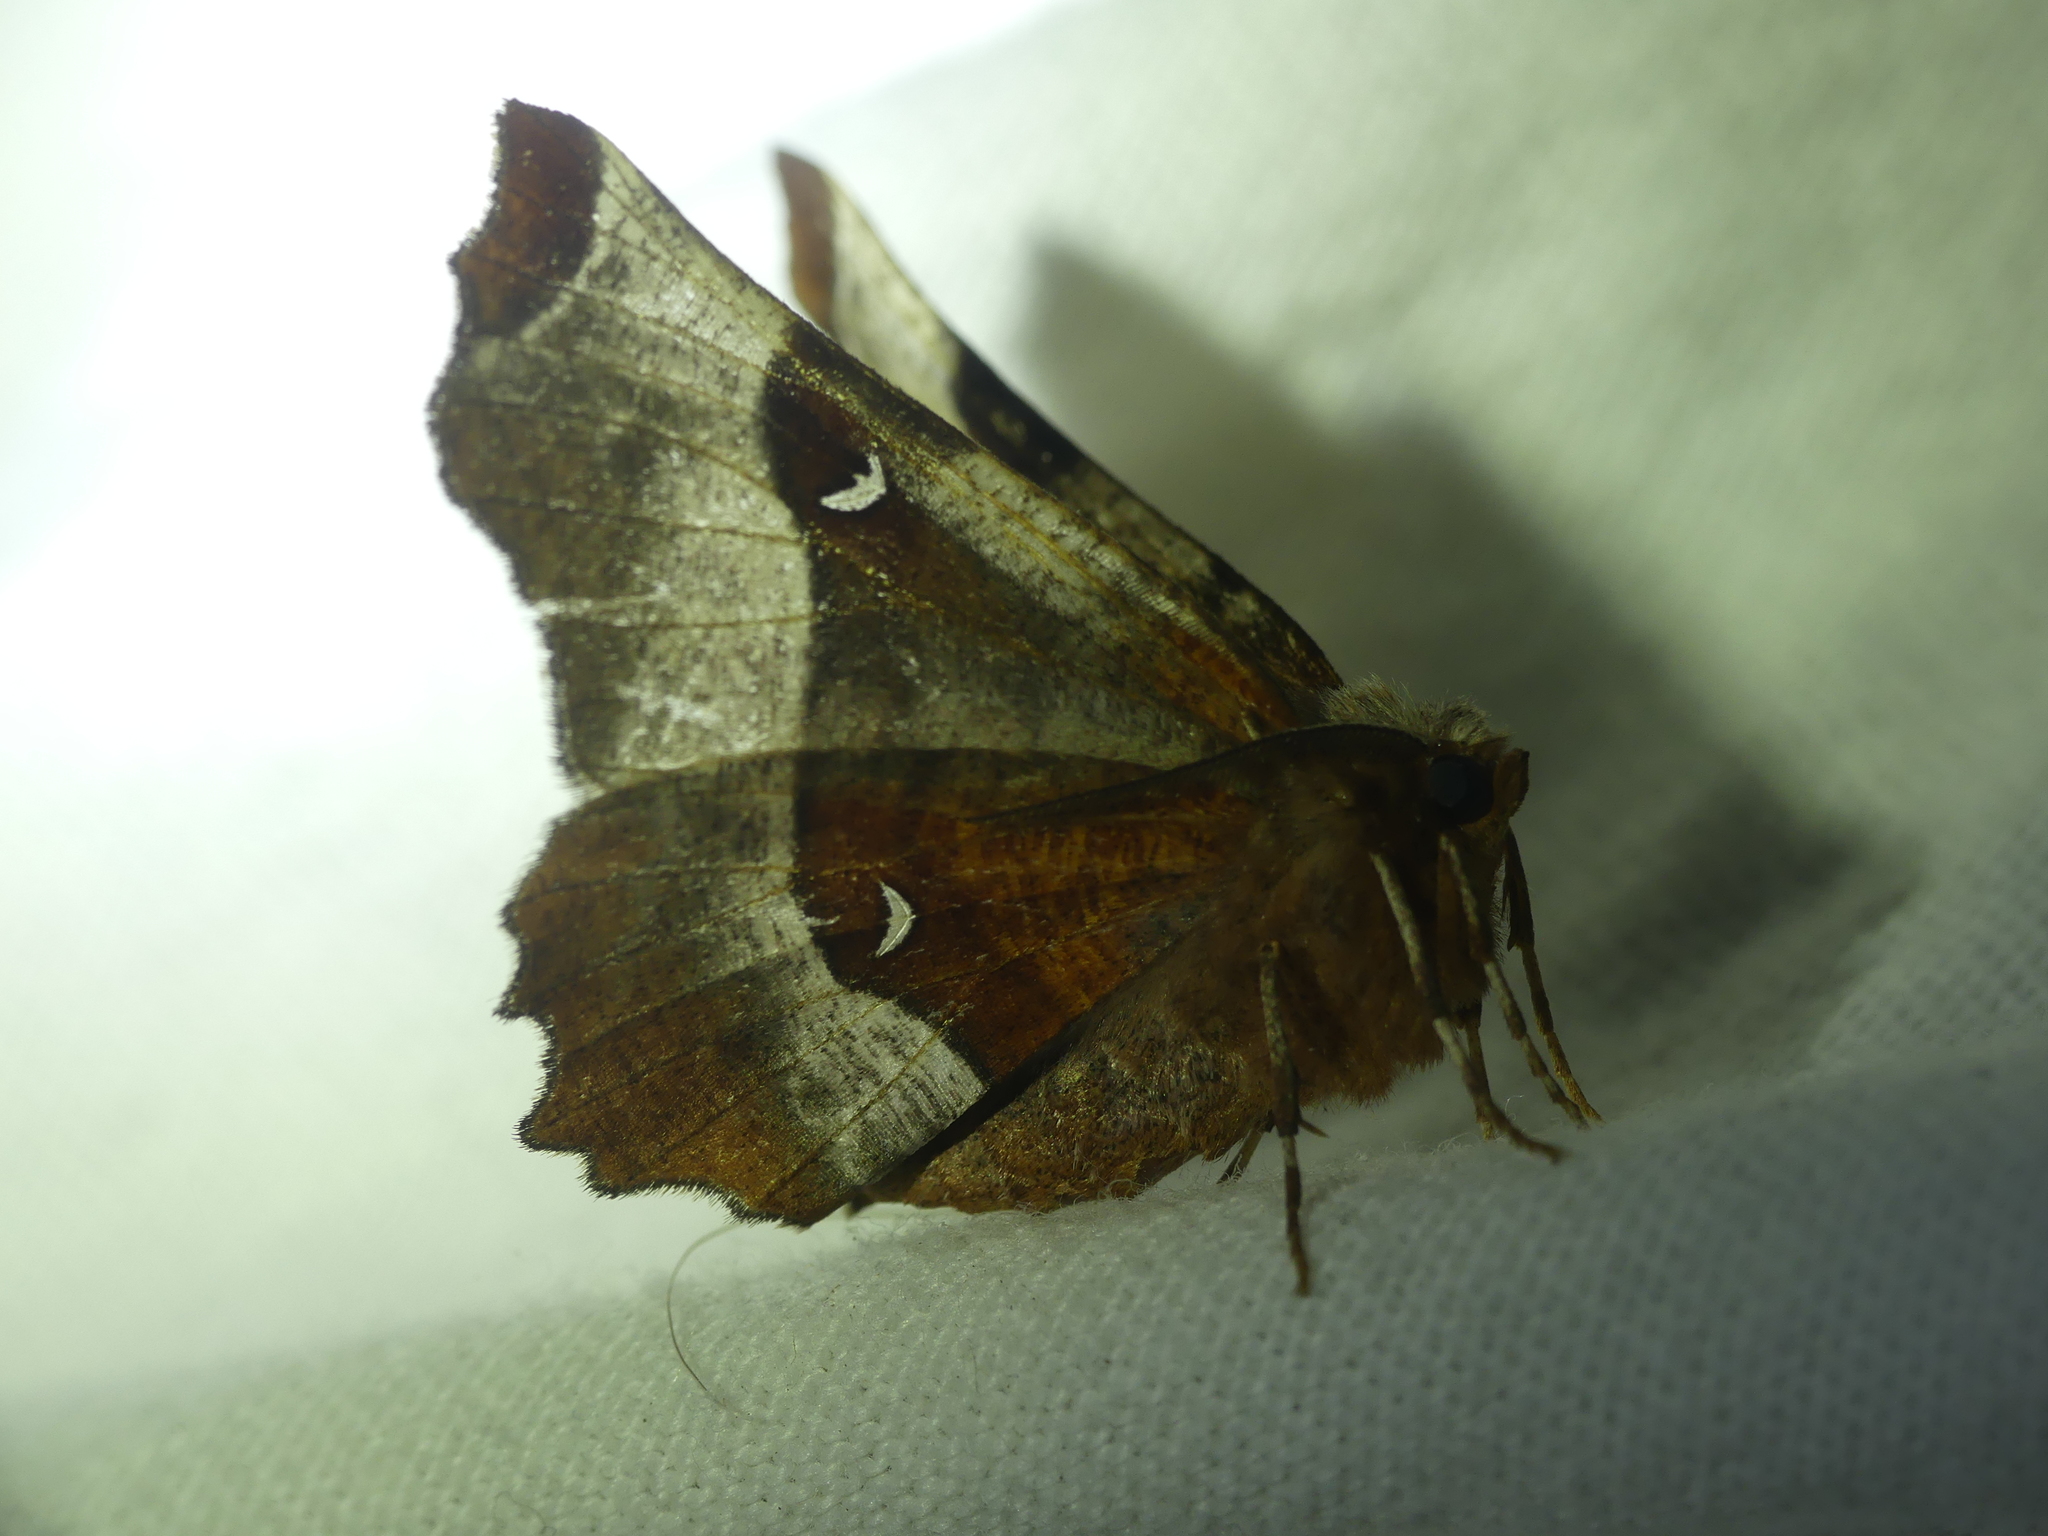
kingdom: Animalia
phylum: Arthropoda
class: Insecta
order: Lepidoptera
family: Geometridae
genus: Selenia
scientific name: Selenia tetralunaria
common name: Purple thorn
